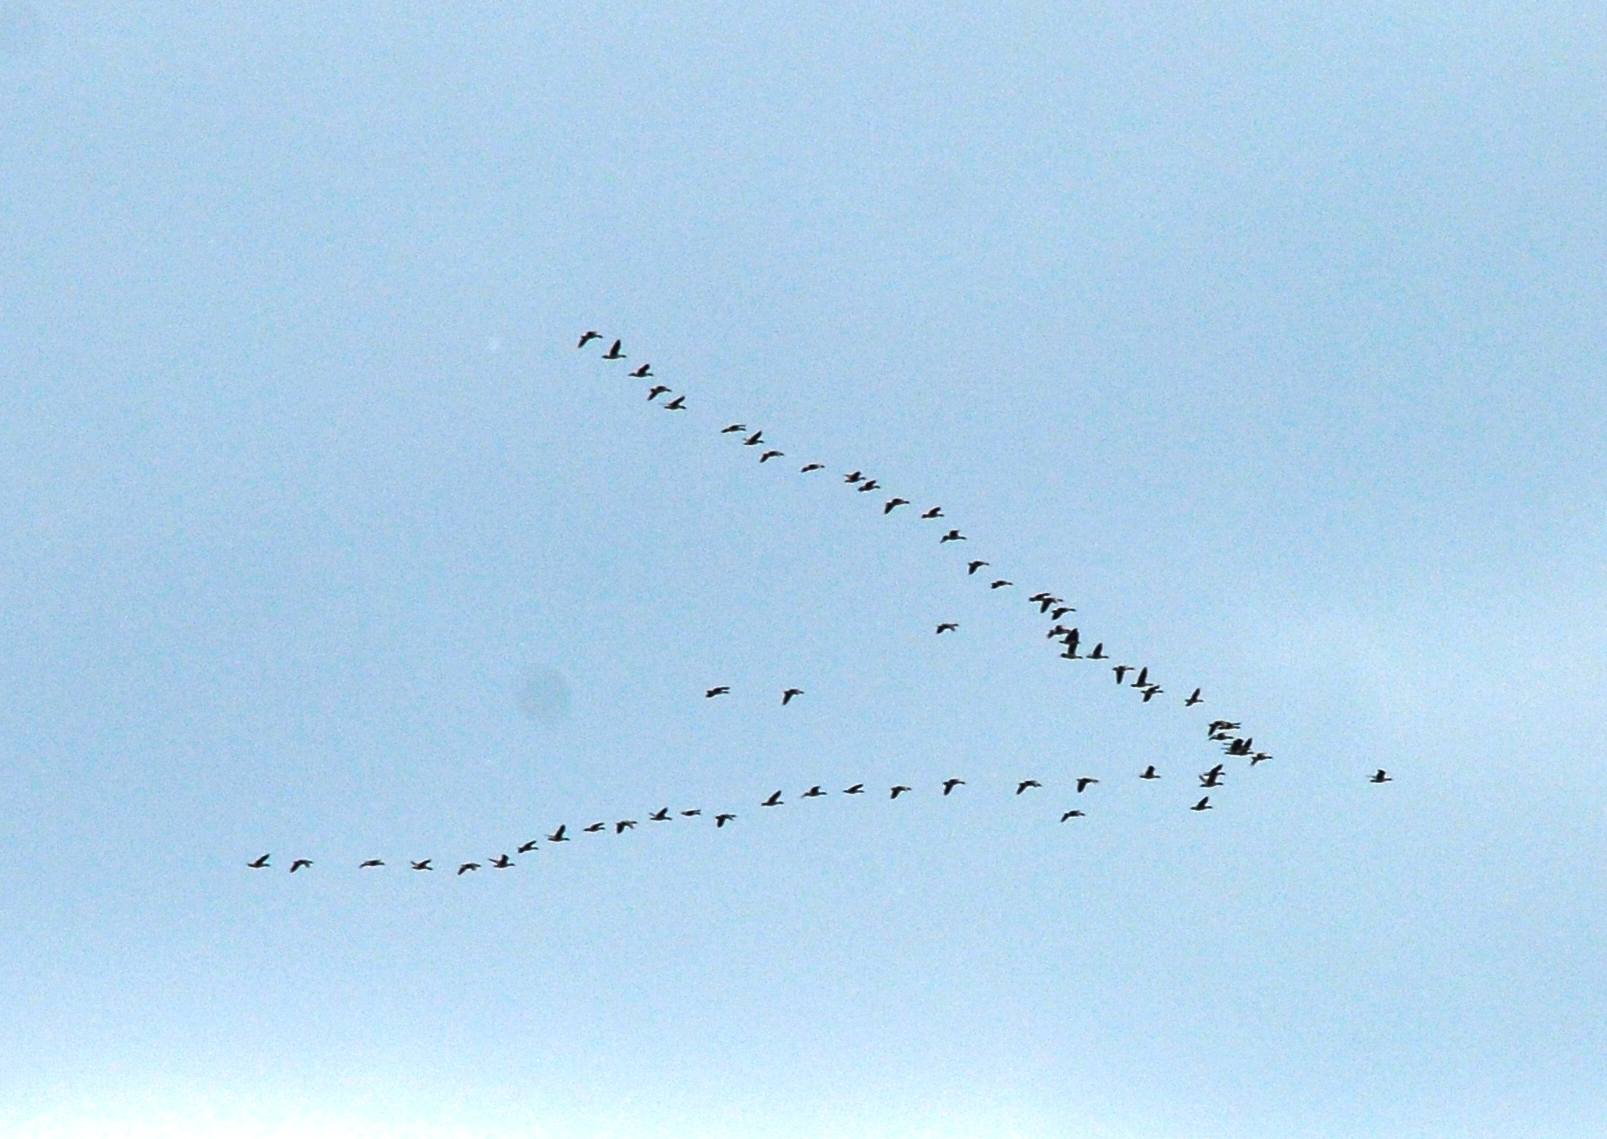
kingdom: Animalia
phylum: Chordata
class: Aves
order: Anseriformes
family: Anatidae
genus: Anser
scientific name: Anser fabalis
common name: Bean goose
